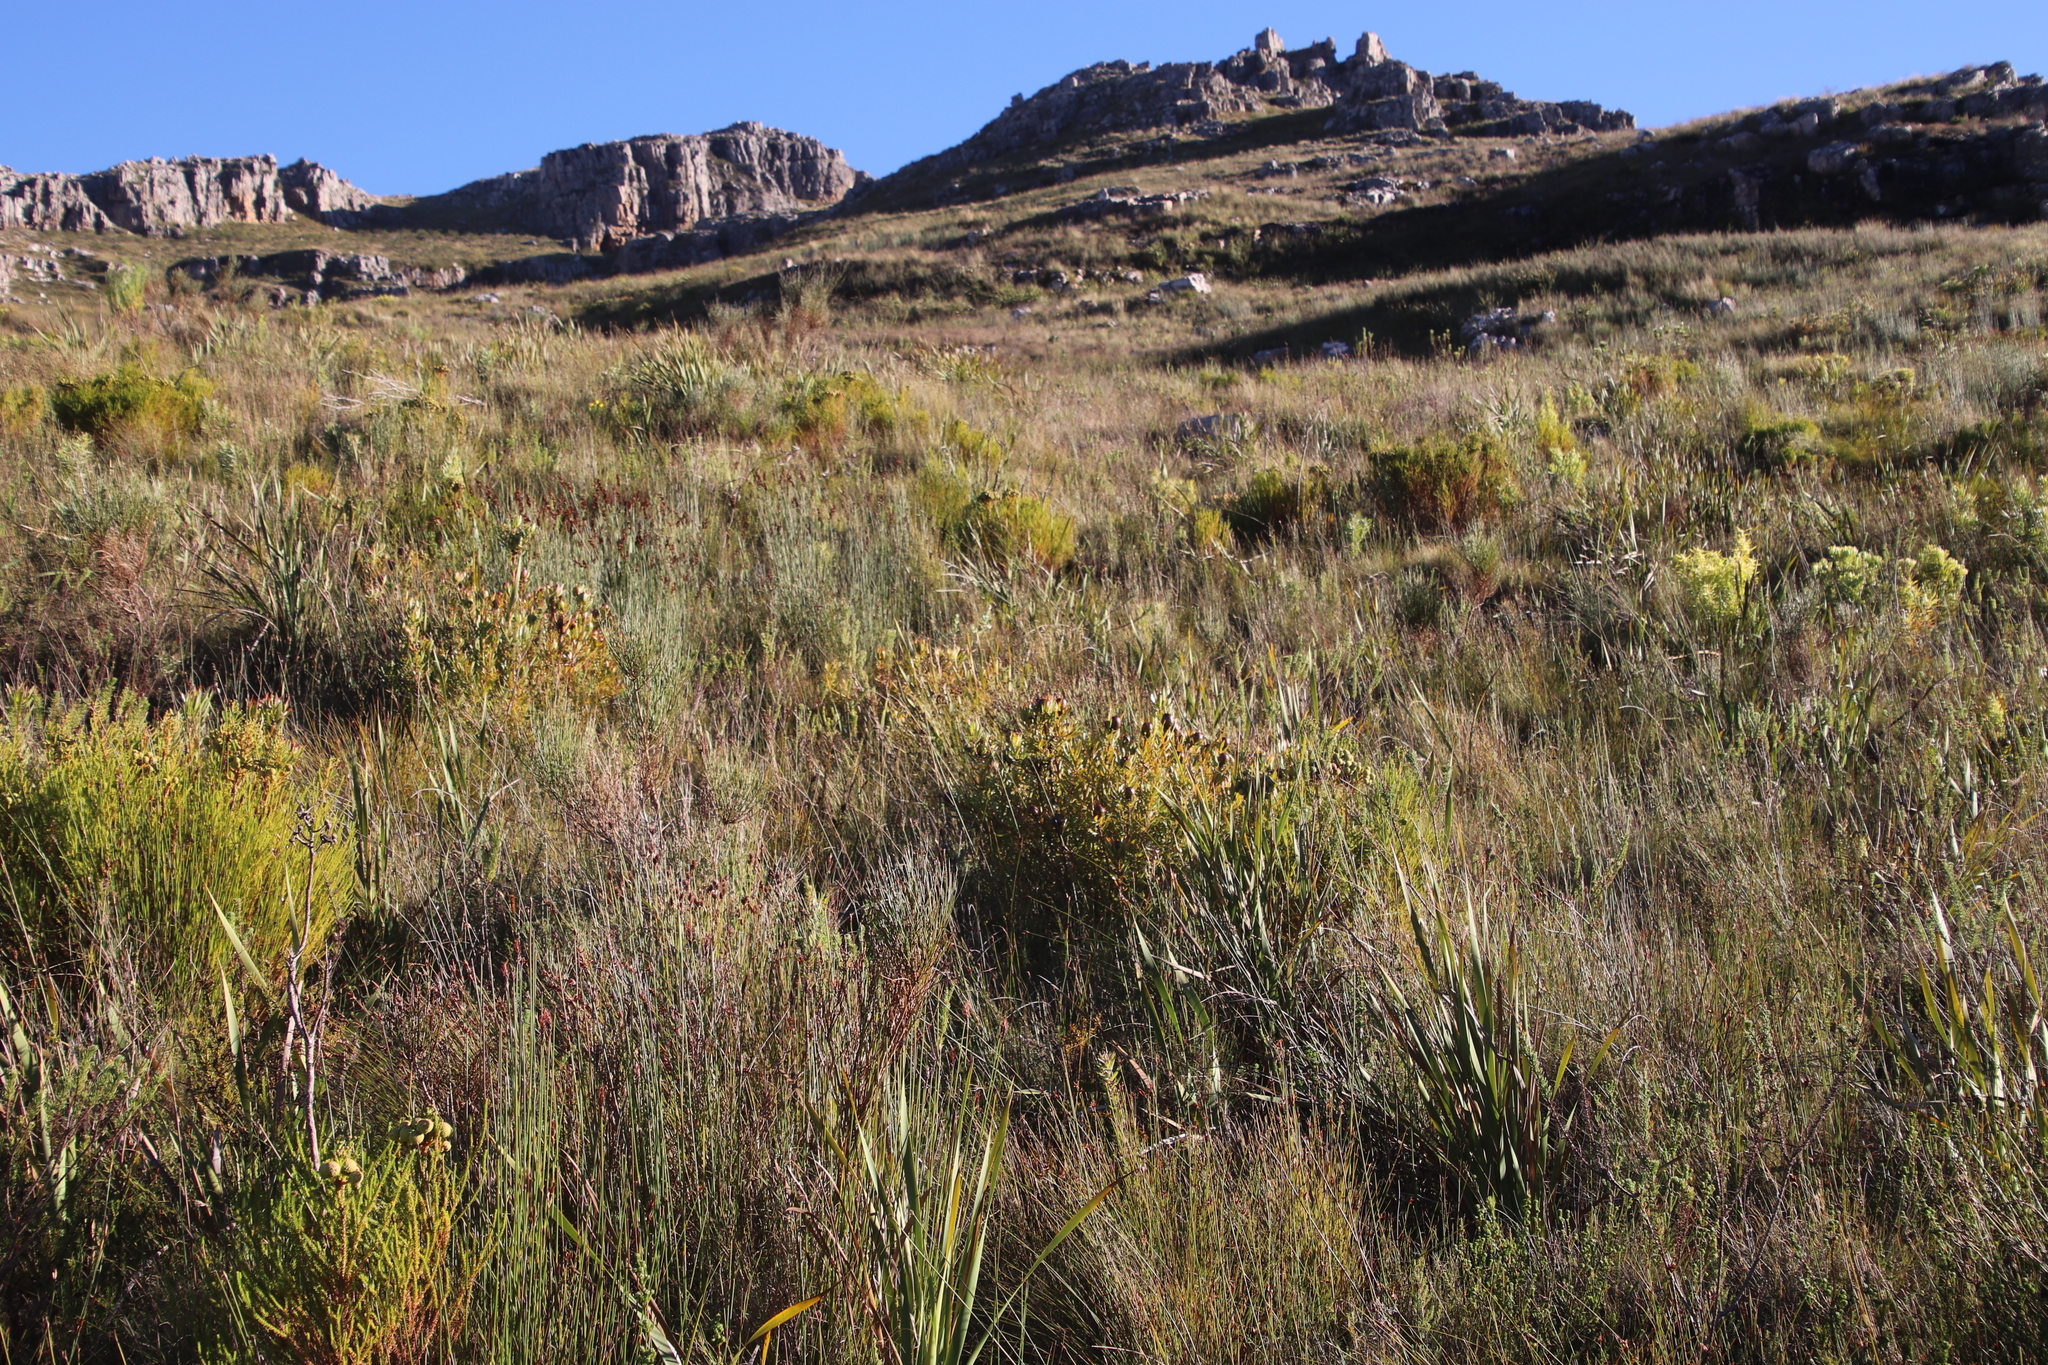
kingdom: Plantae
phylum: Tracheophyta
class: Magnoliopsida
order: Proteales
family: Proteaceae
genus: Leucadendron
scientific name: Leucadendron spissifolium
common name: Spear-leaf conebush
